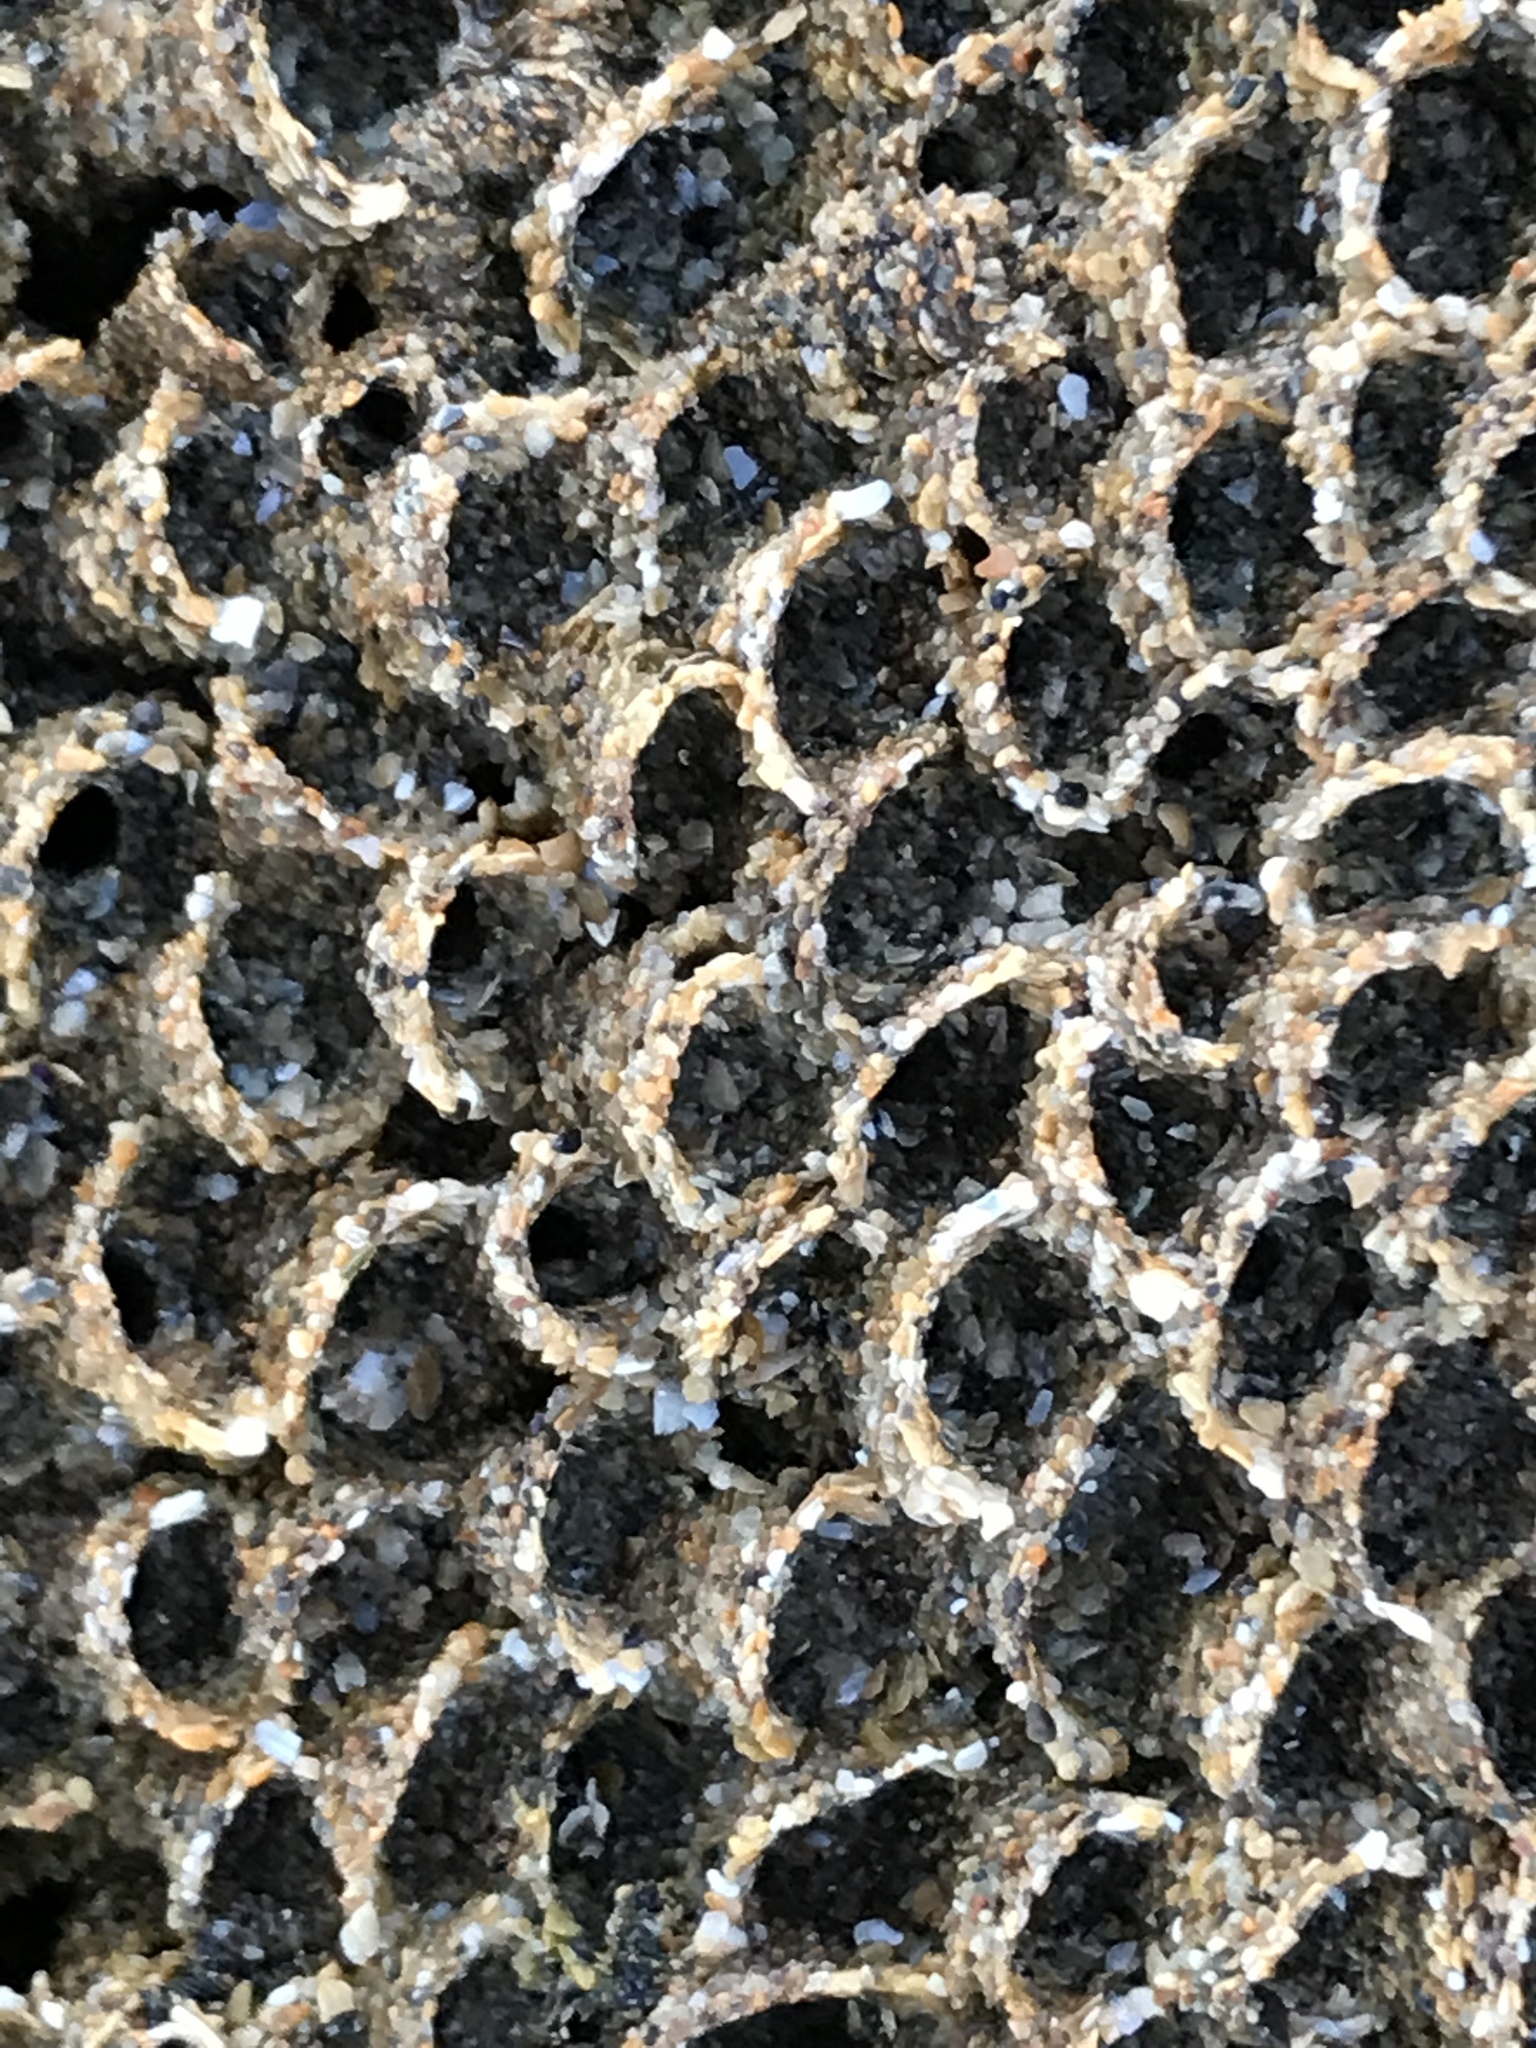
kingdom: Animalia
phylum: Annelida
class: Polychaeta
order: Sabellida
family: Sabellariidae
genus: Phragmatopoma
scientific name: Phragmatopoma californica
